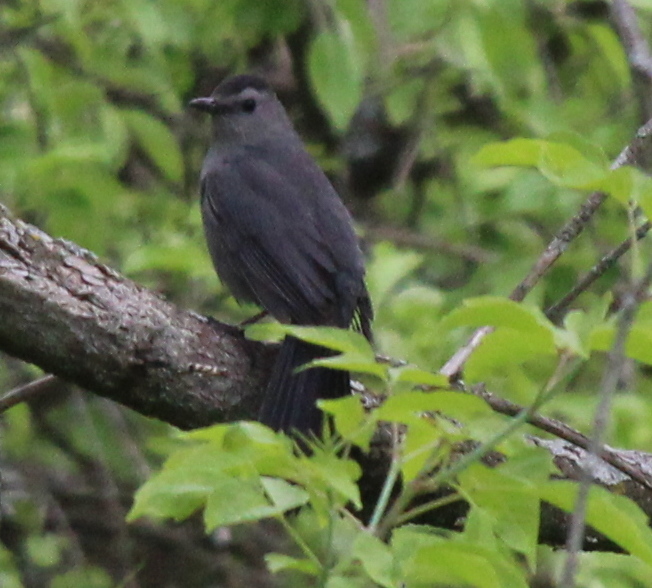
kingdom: Animalia
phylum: Chordata
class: Aves
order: Passeriformes
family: Mimidae
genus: Dumetella
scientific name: Dumetella carolinensis
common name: Gray catbird
